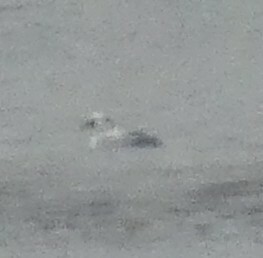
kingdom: Animalia
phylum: Chordata
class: Aves
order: Anseriformes
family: Anatidae
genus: Mergellus
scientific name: Mergellus albellus
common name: Smew
